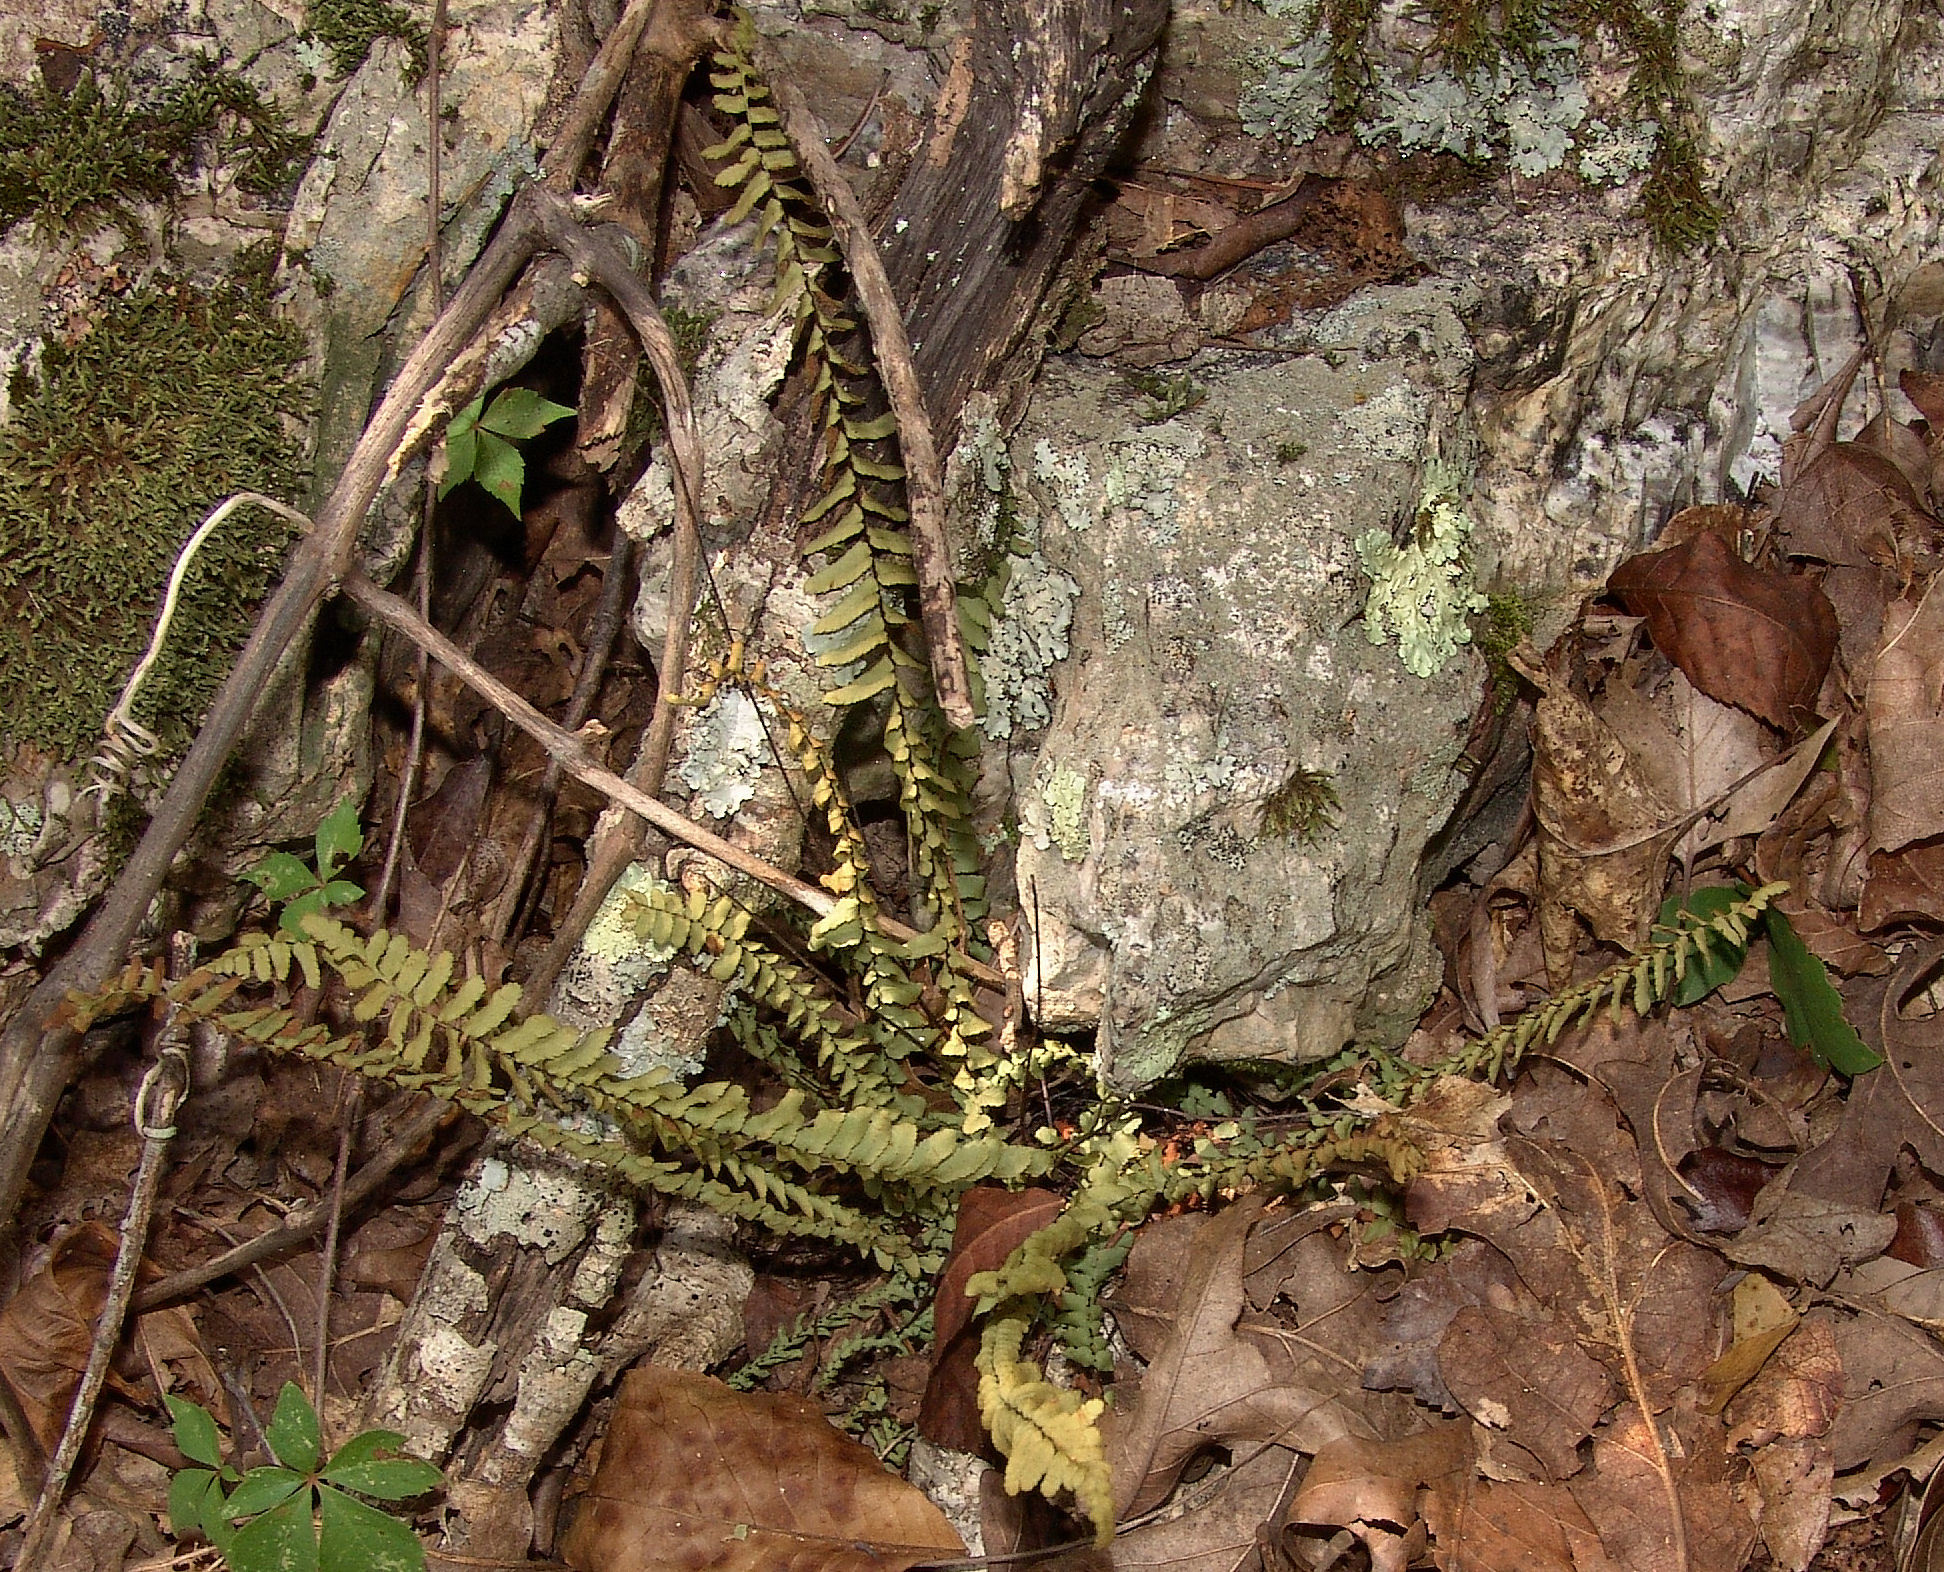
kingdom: Plantae
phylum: Tracheophyta
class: Polypodiopsida
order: Polypodiales
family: Aspleniaceae
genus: Asplenium
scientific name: Asplenium platyneuron
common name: Ebony spleenwort
